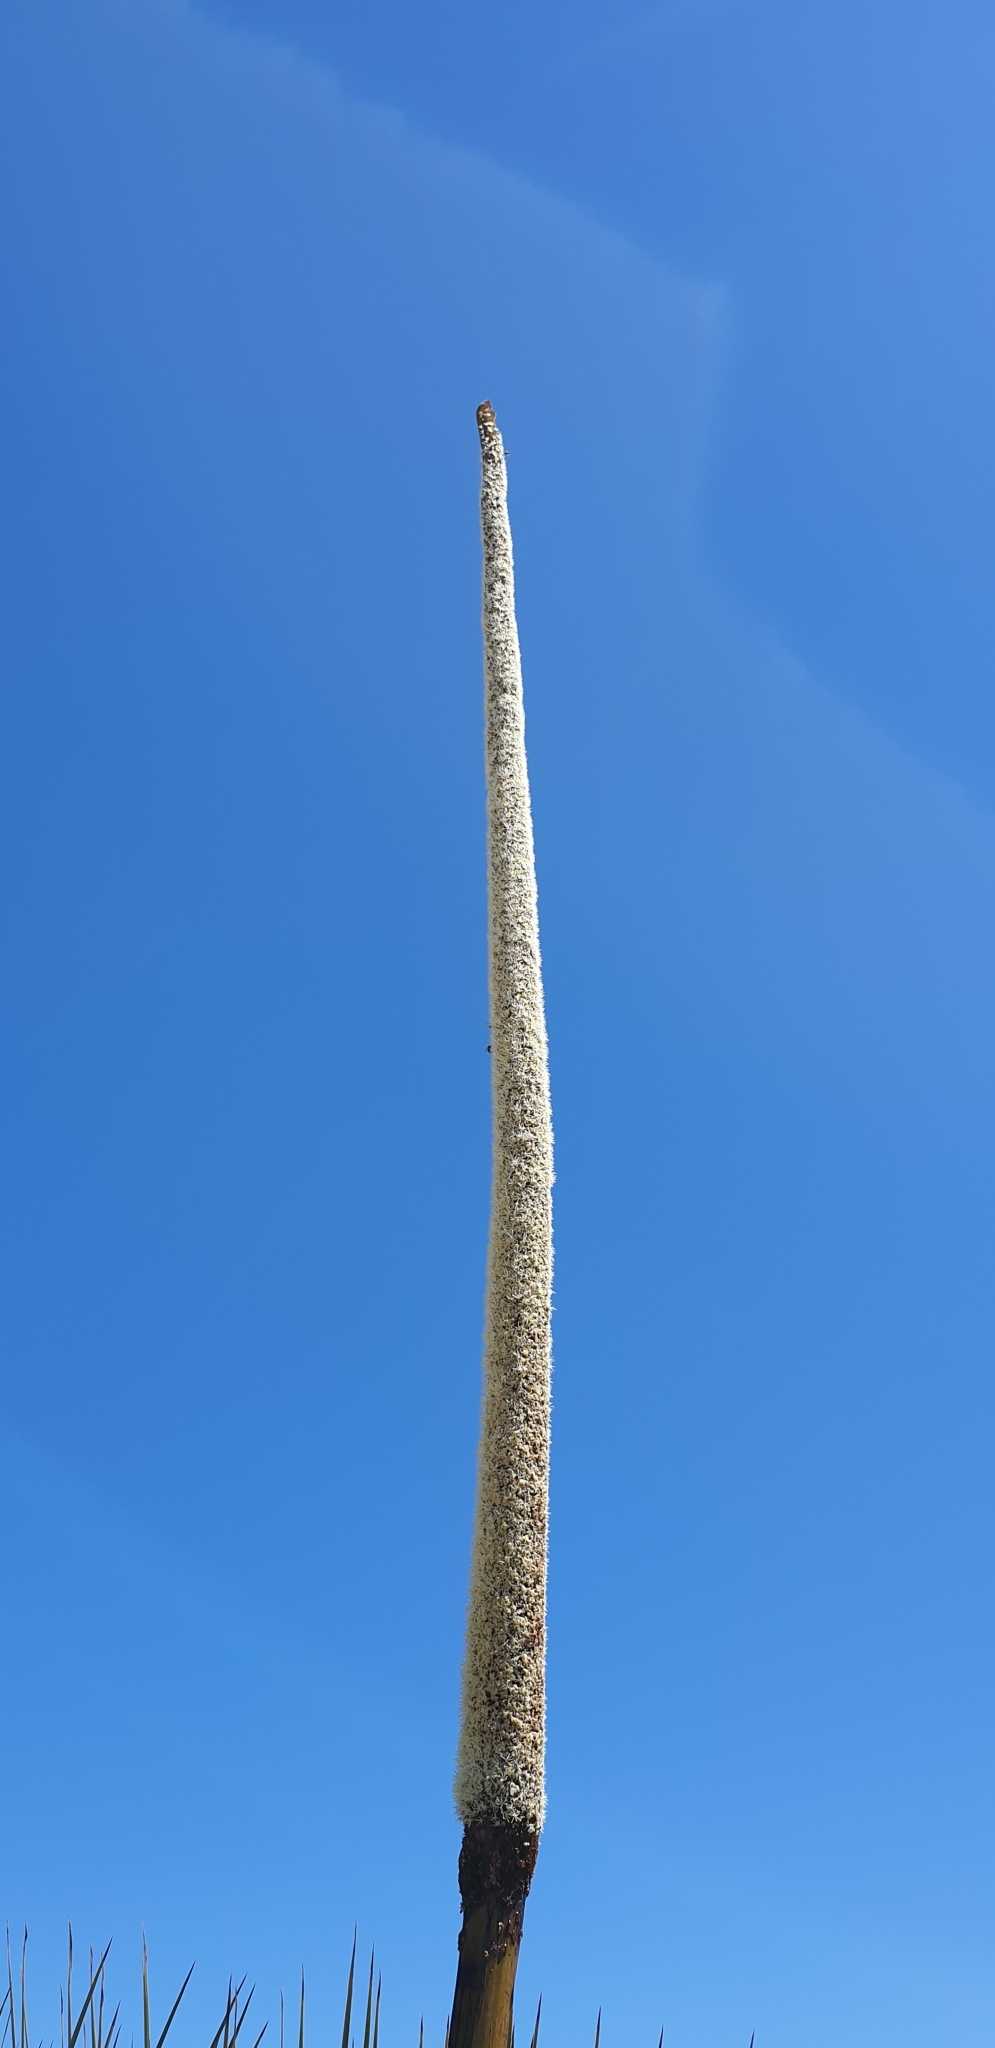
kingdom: Plantae
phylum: Tracheophyta
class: Liliopsida
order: Asparagales
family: Asphodelaceae
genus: Xanthorrhoea
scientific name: Xanthorrhoea semiplana
